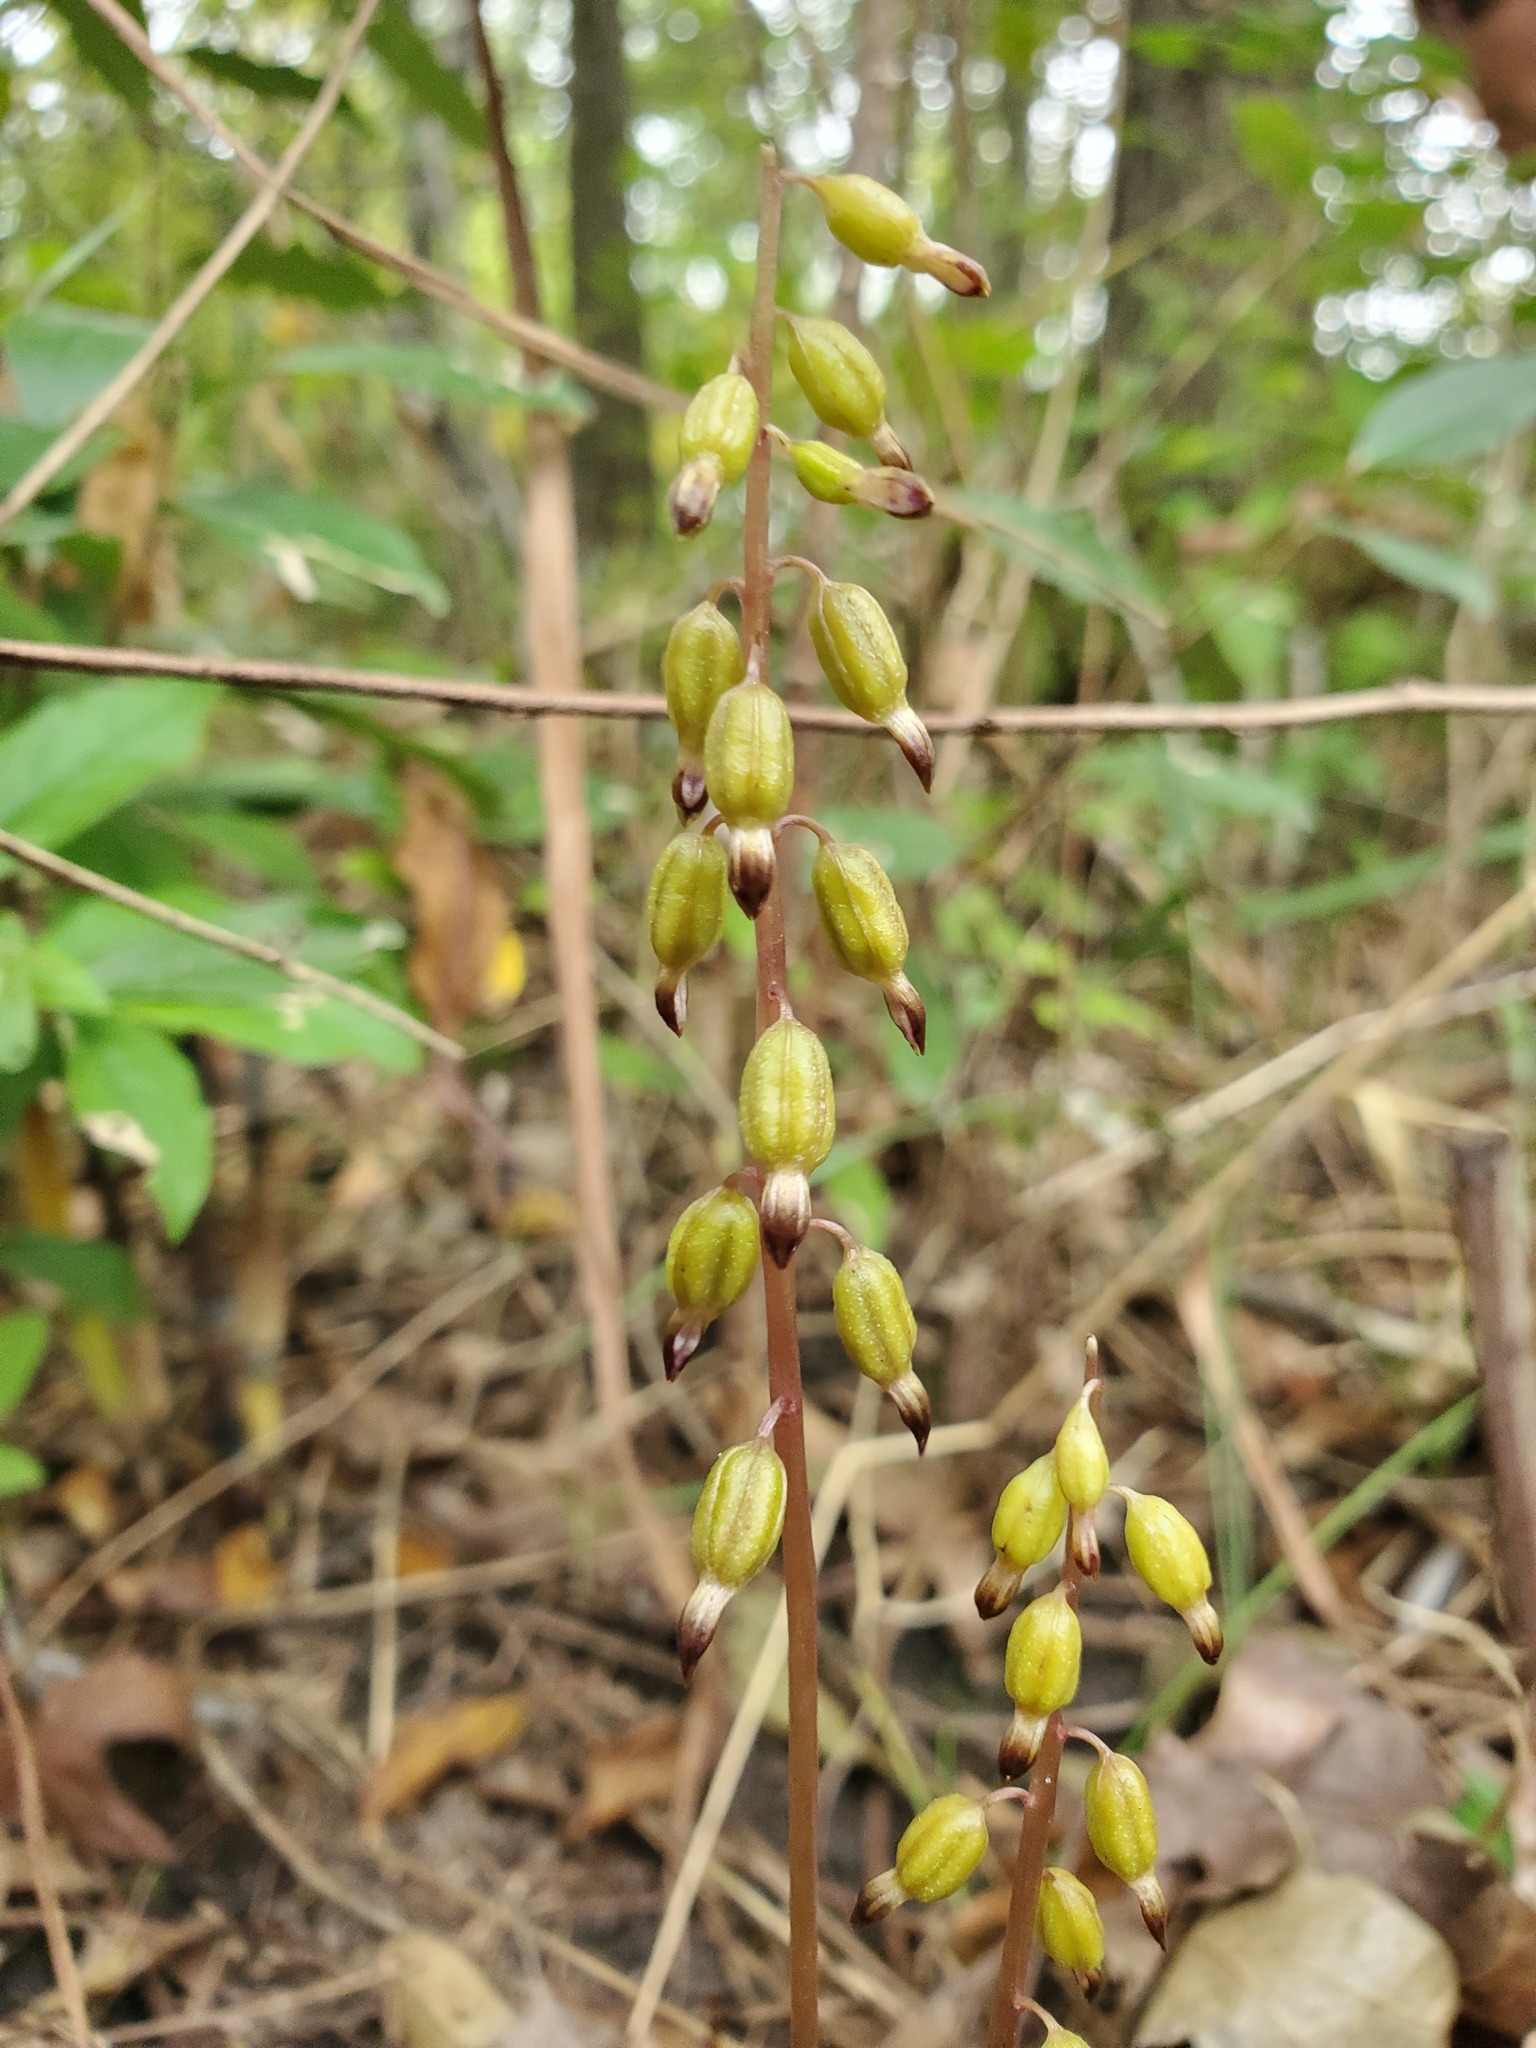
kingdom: Plantae
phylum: Tracheophyta
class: Liliopsida
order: Asparagales
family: Orchidaceae
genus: Corallorhiza
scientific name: Corallorhiza odontorhiza
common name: Autumn coralroot
